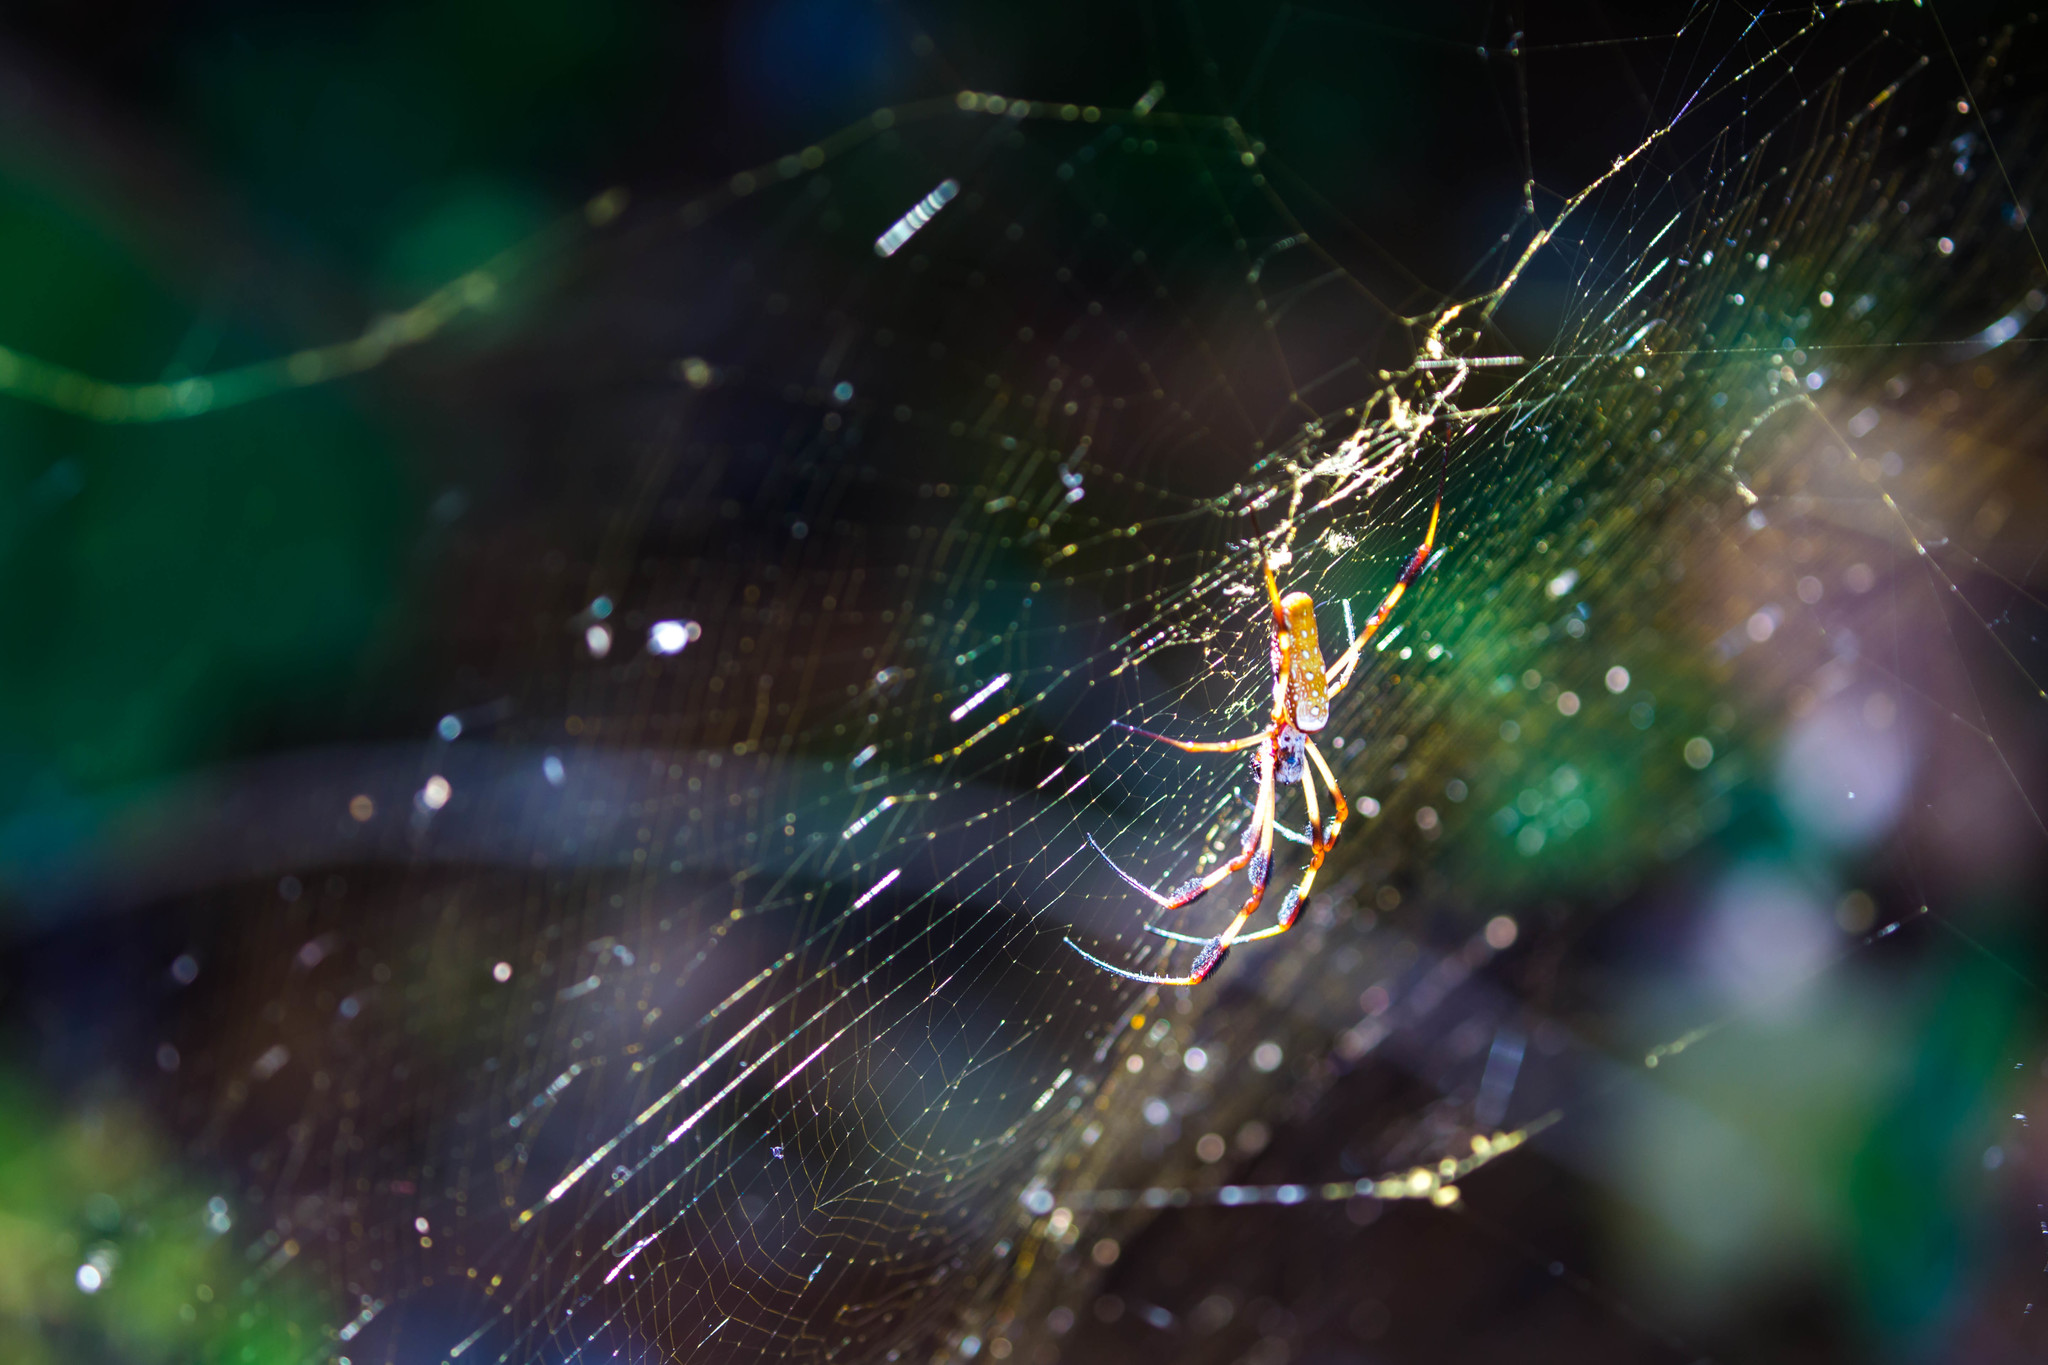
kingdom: Animalia
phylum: Arthropoda
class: Arachnida
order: Araneae
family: Araneidae
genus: Trichonephila
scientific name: Trichonephila clavipes
